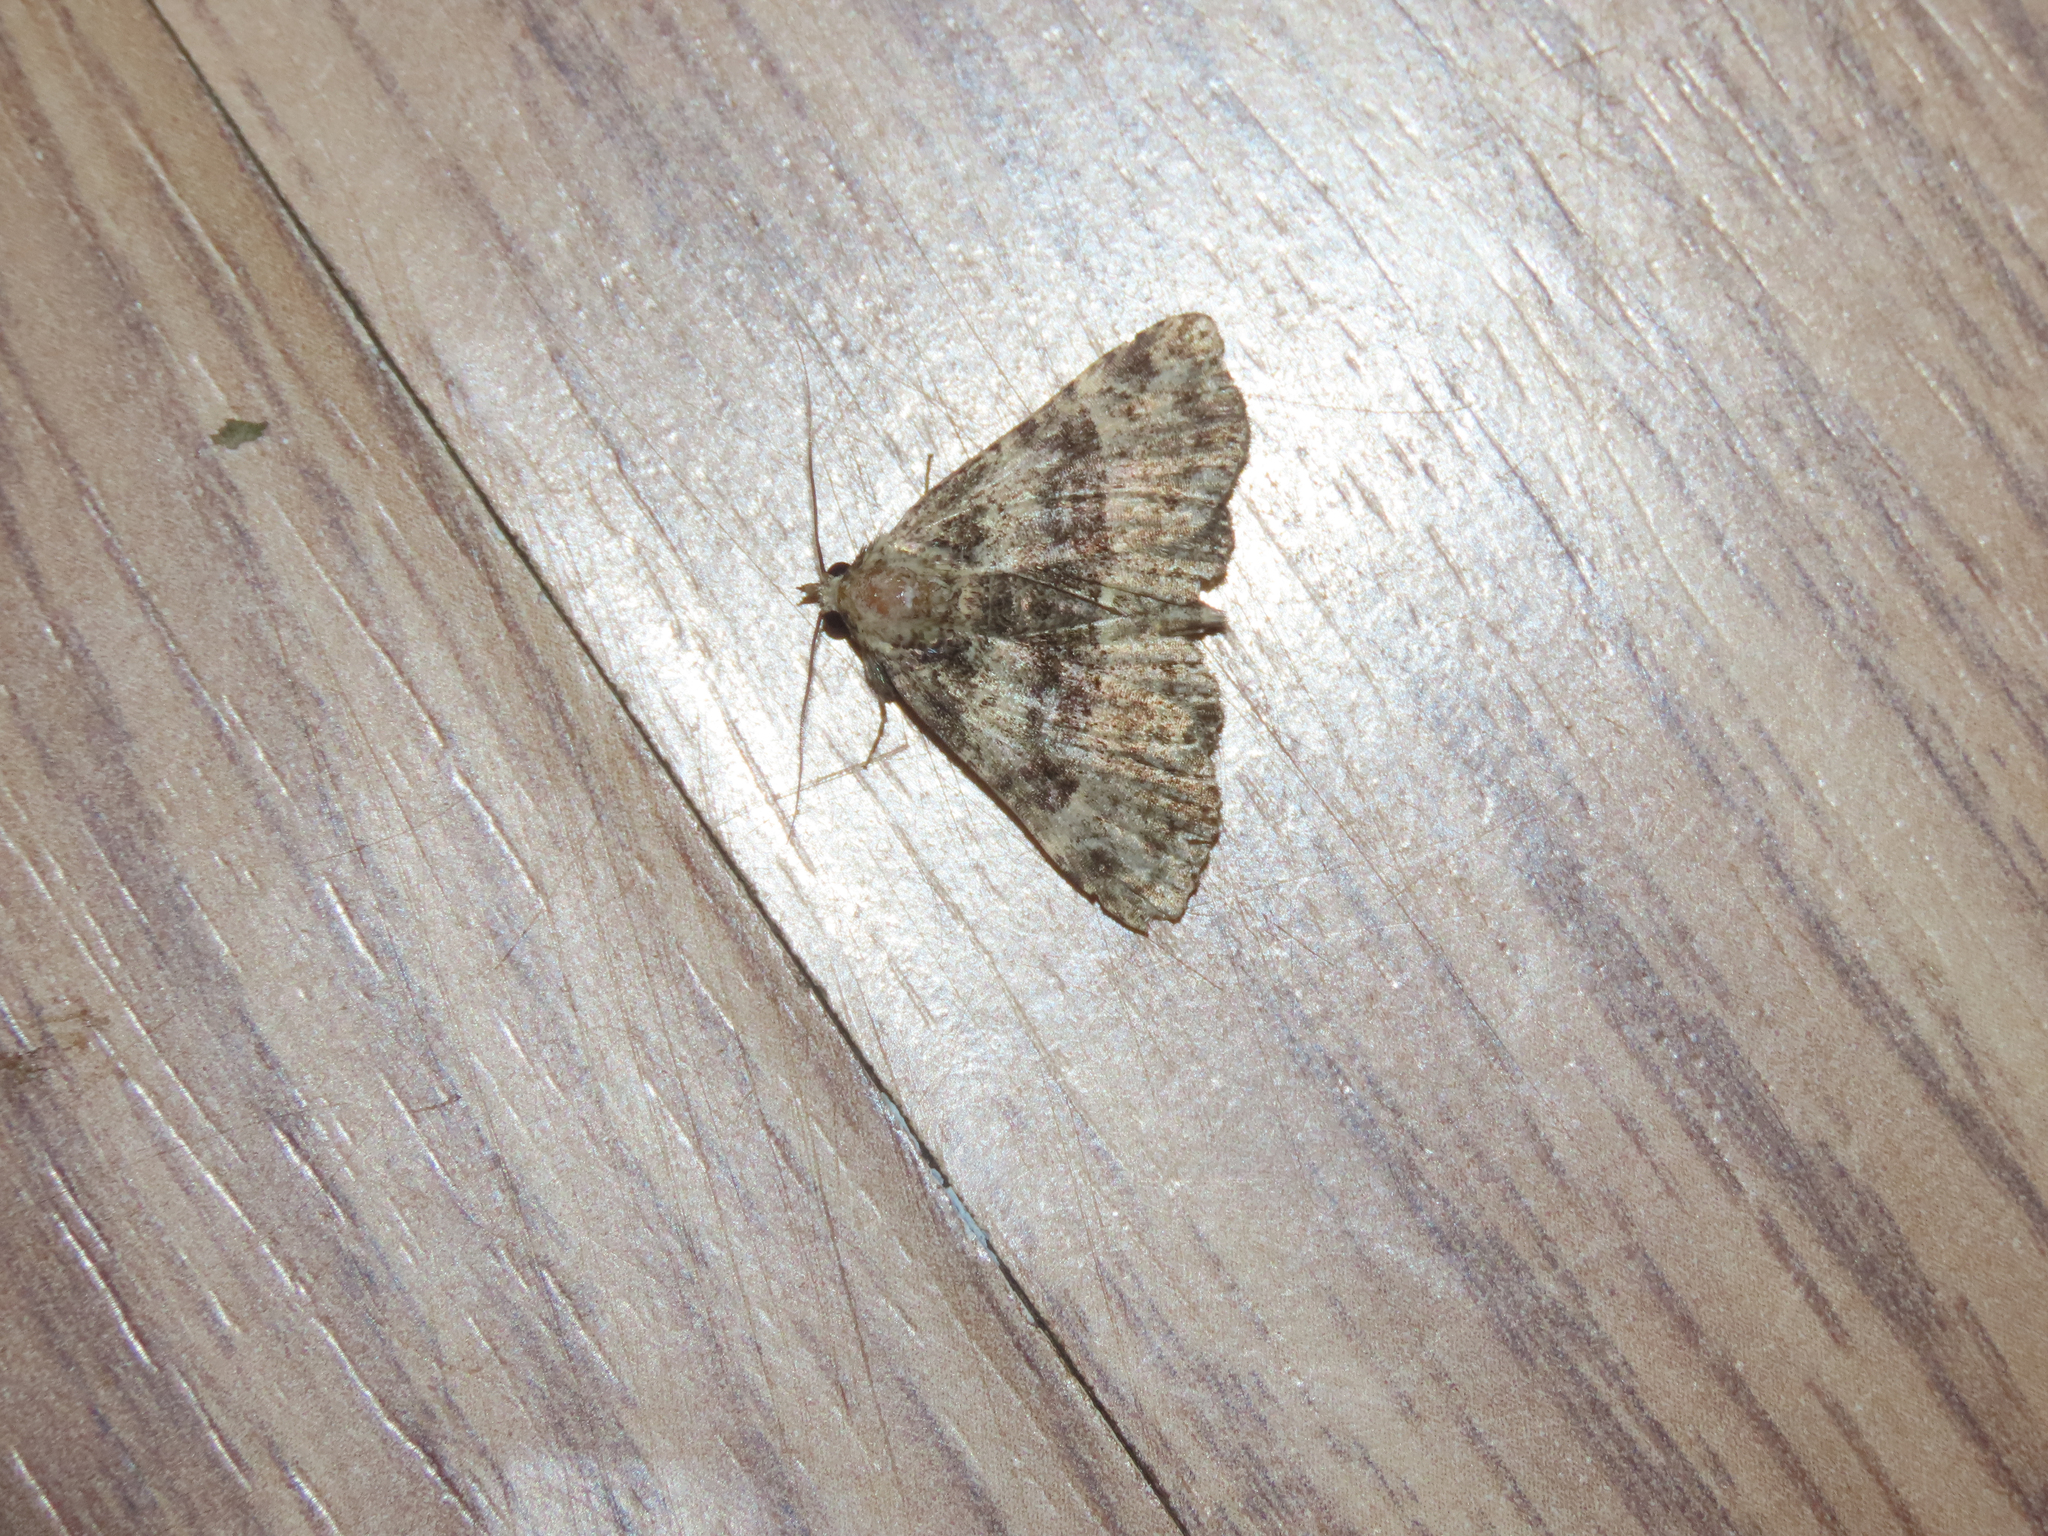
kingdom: Animalia
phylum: Arthropoda
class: Insecta
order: Lepidoptera
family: Erebidae
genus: Metalectra
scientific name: Metalectra discalis
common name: Common fungus moth
